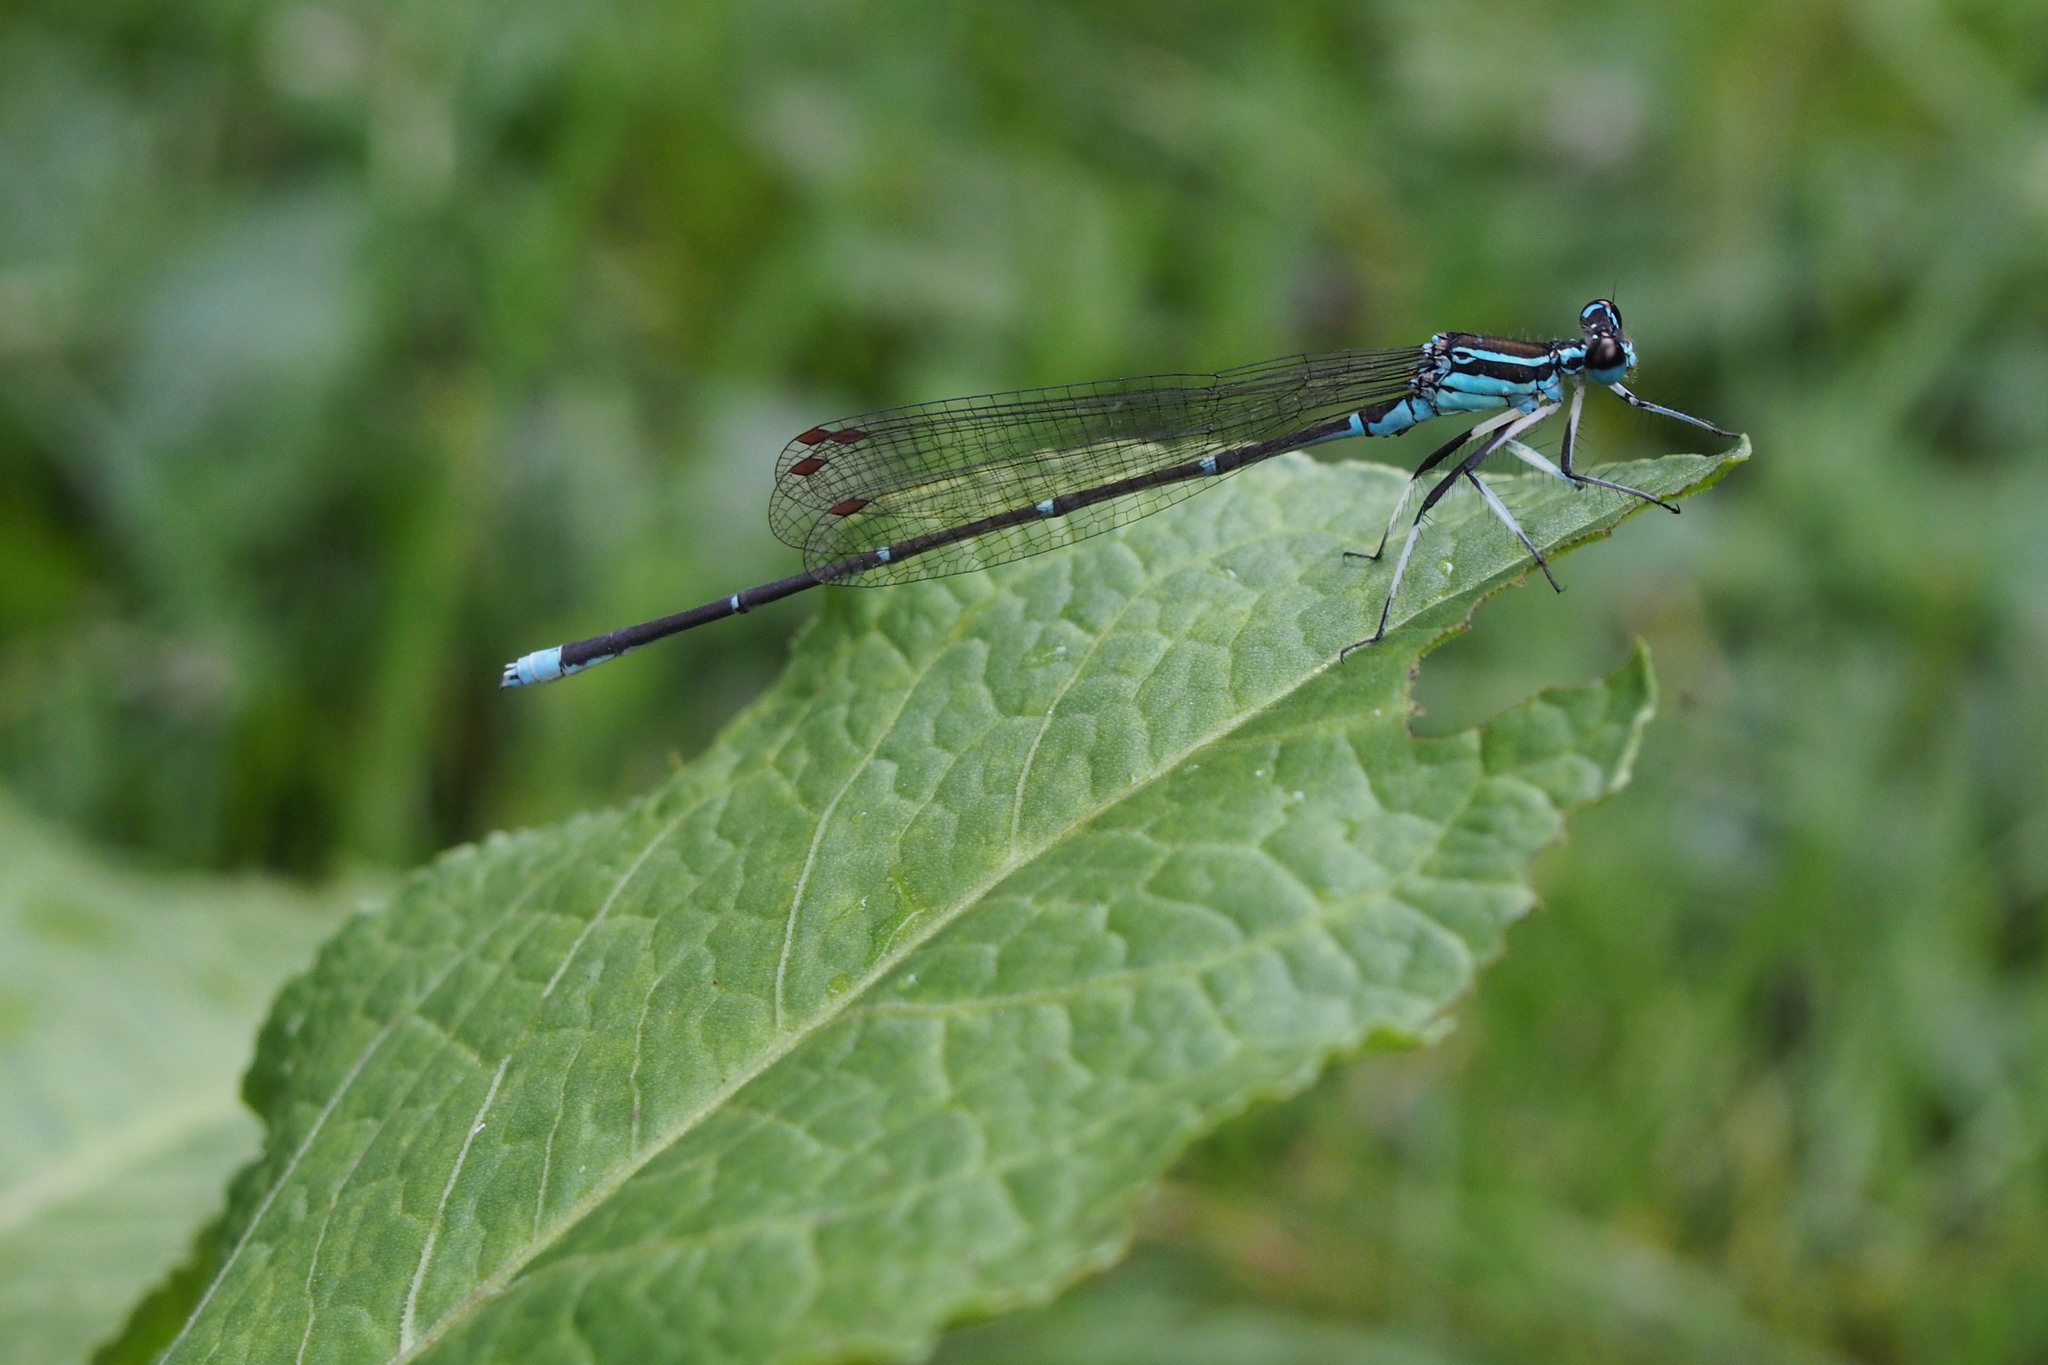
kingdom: Animalia
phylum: Arthropoda
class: Insecta
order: Odonata
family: Platycnemididae
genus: Pseudocopera
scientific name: Pseudocopera annulata
